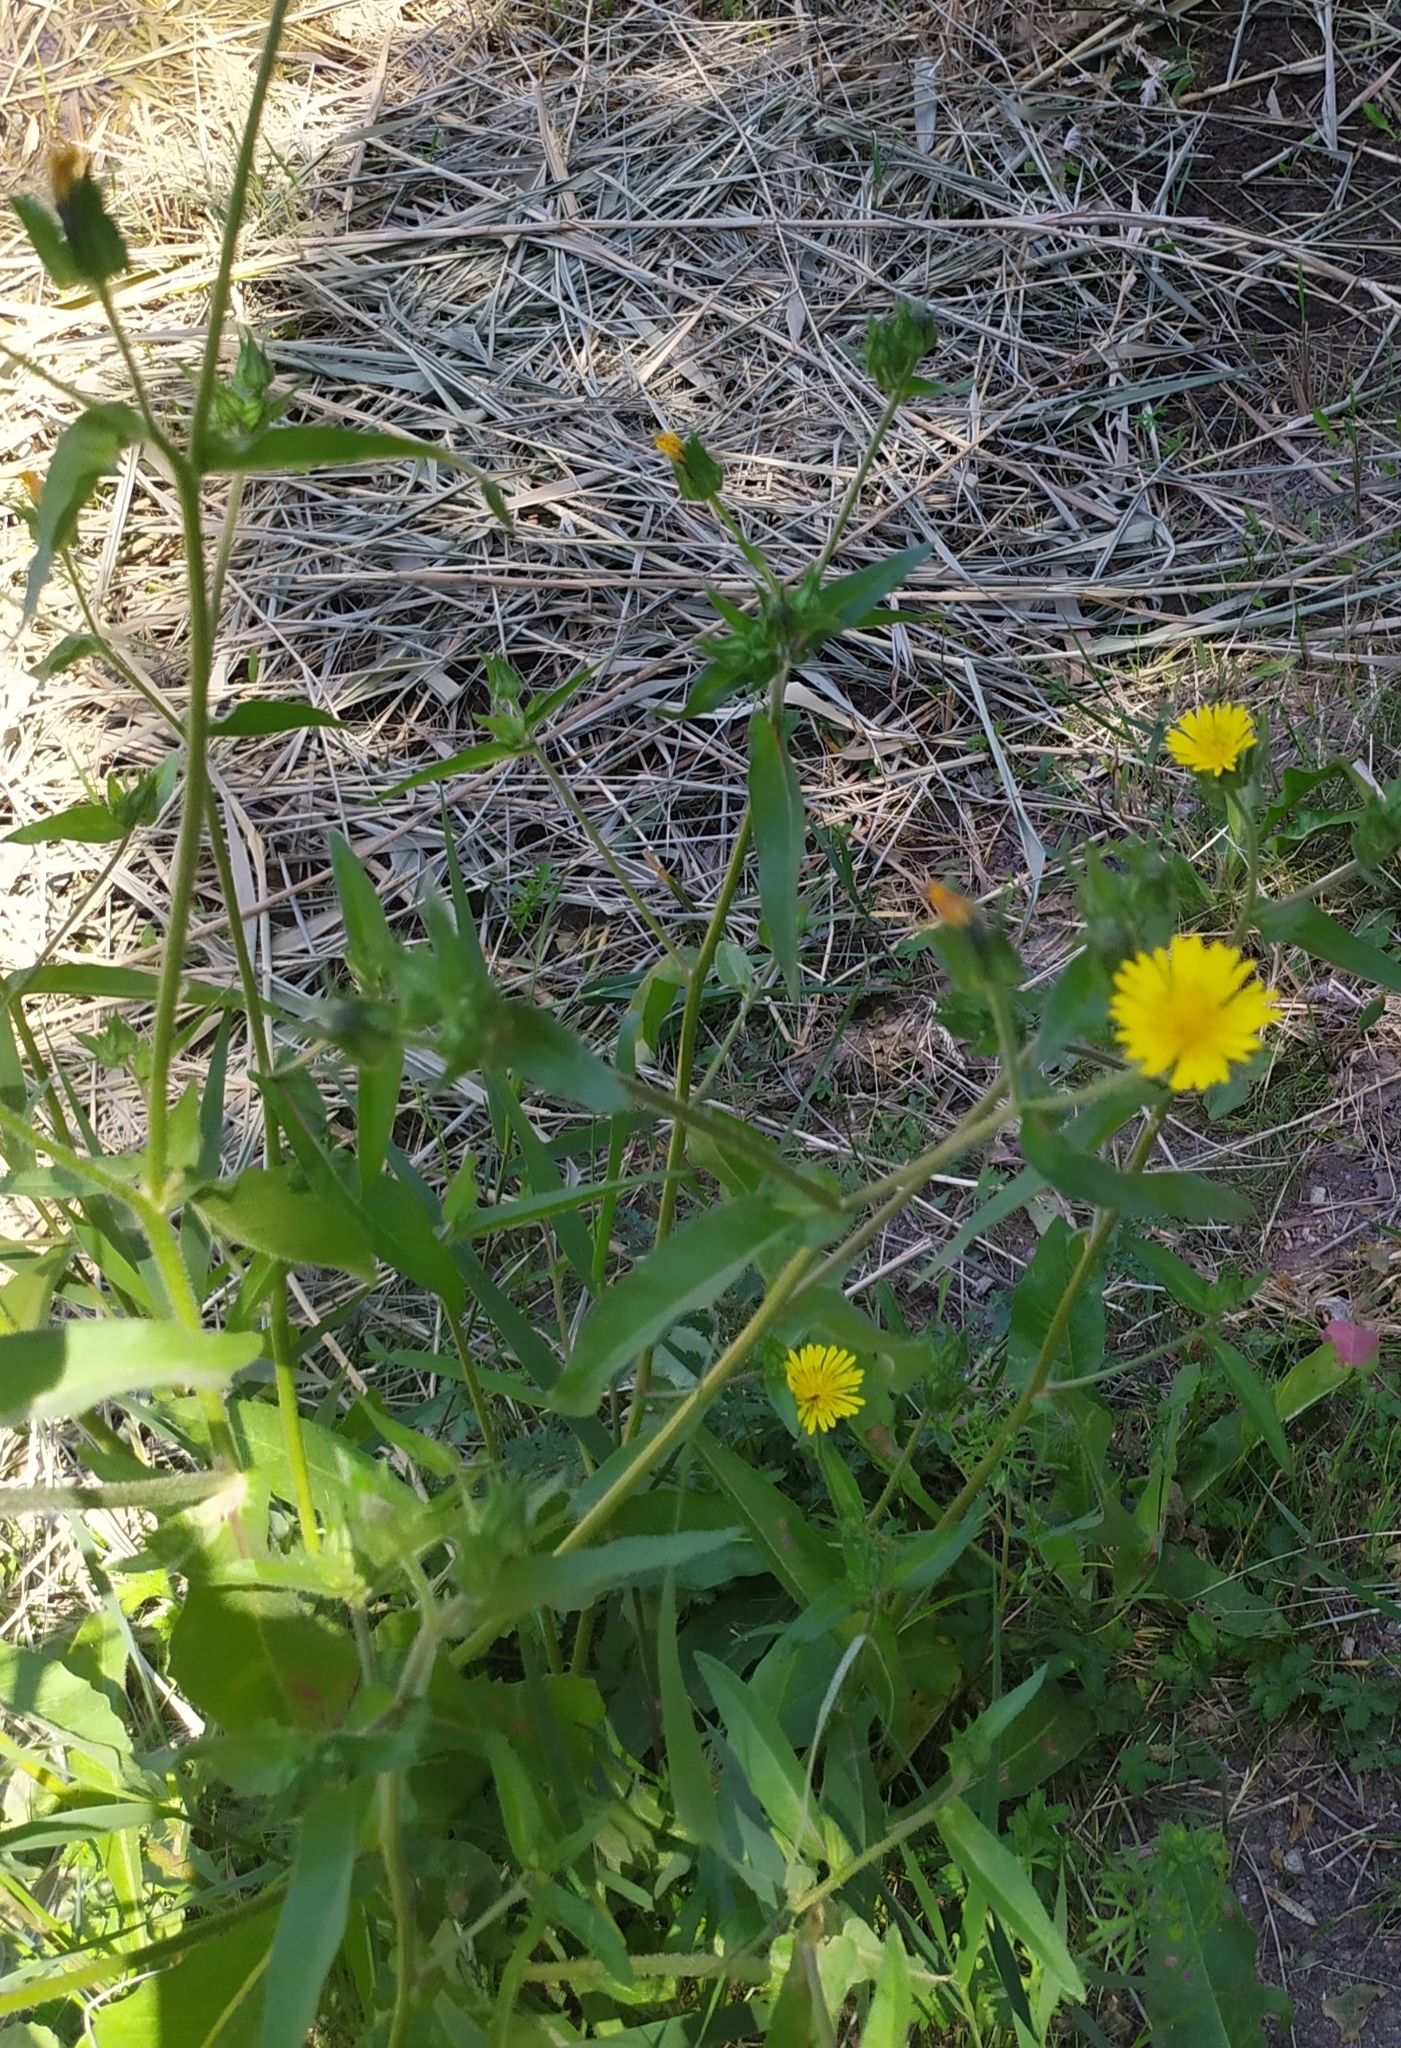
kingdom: Plantae
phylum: Tracheophyta
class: Magnoliopsida
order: Asterales
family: Asteraceae
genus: Helminthotheca
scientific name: Helminthotheca echioides
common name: Ox-tongue
